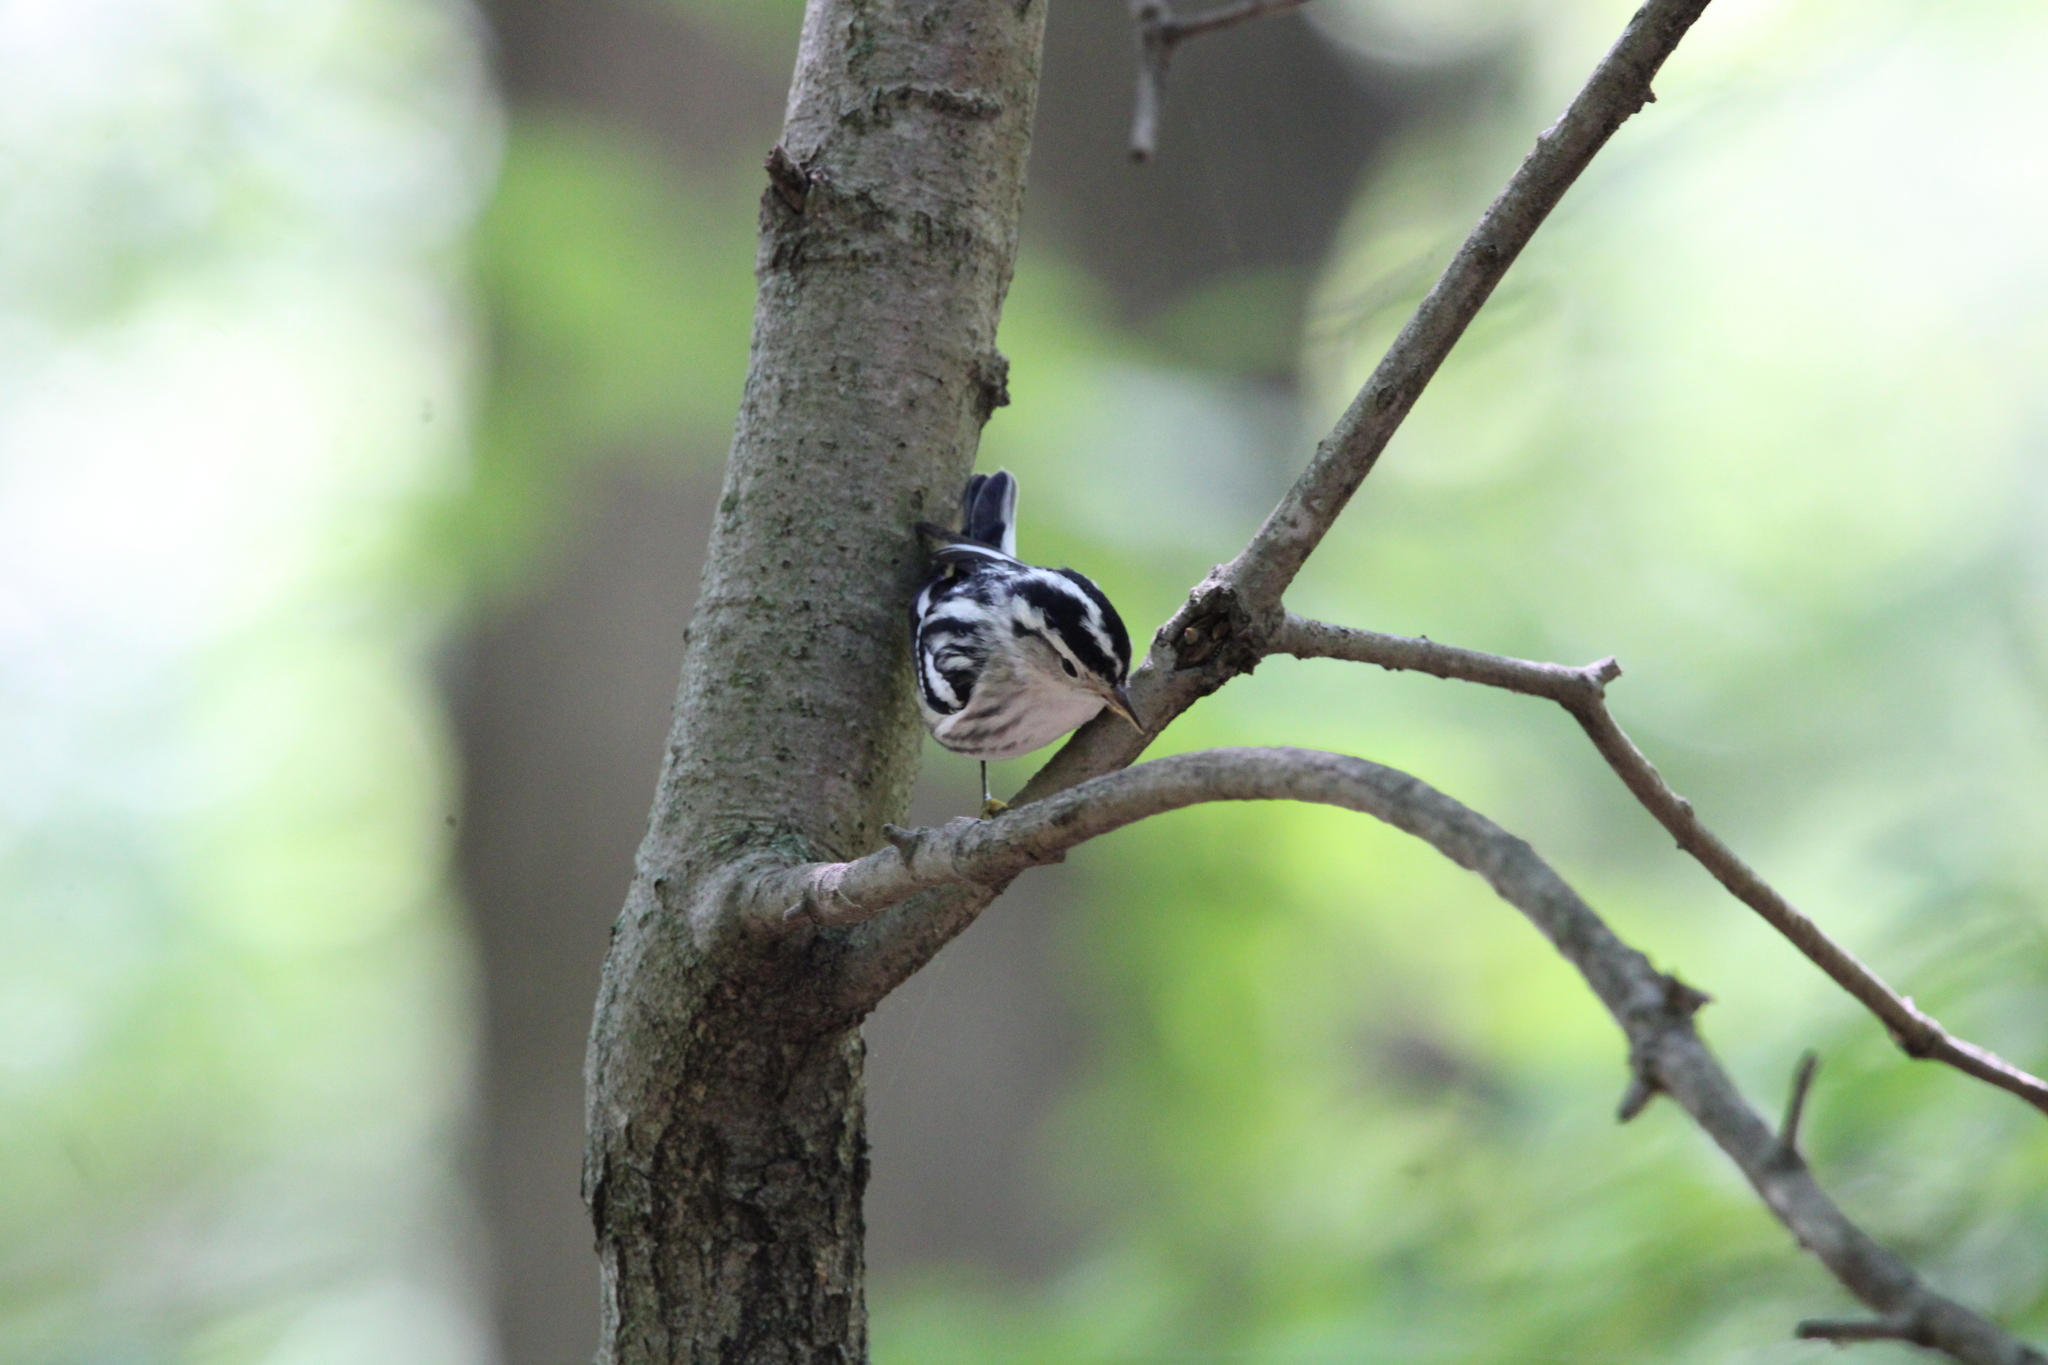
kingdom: Animalia
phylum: Chordata
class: Aves
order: Passeriformes
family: Parulidae
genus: Mniotilta
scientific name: Mniotilta varia
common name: Black-and-white warbler
